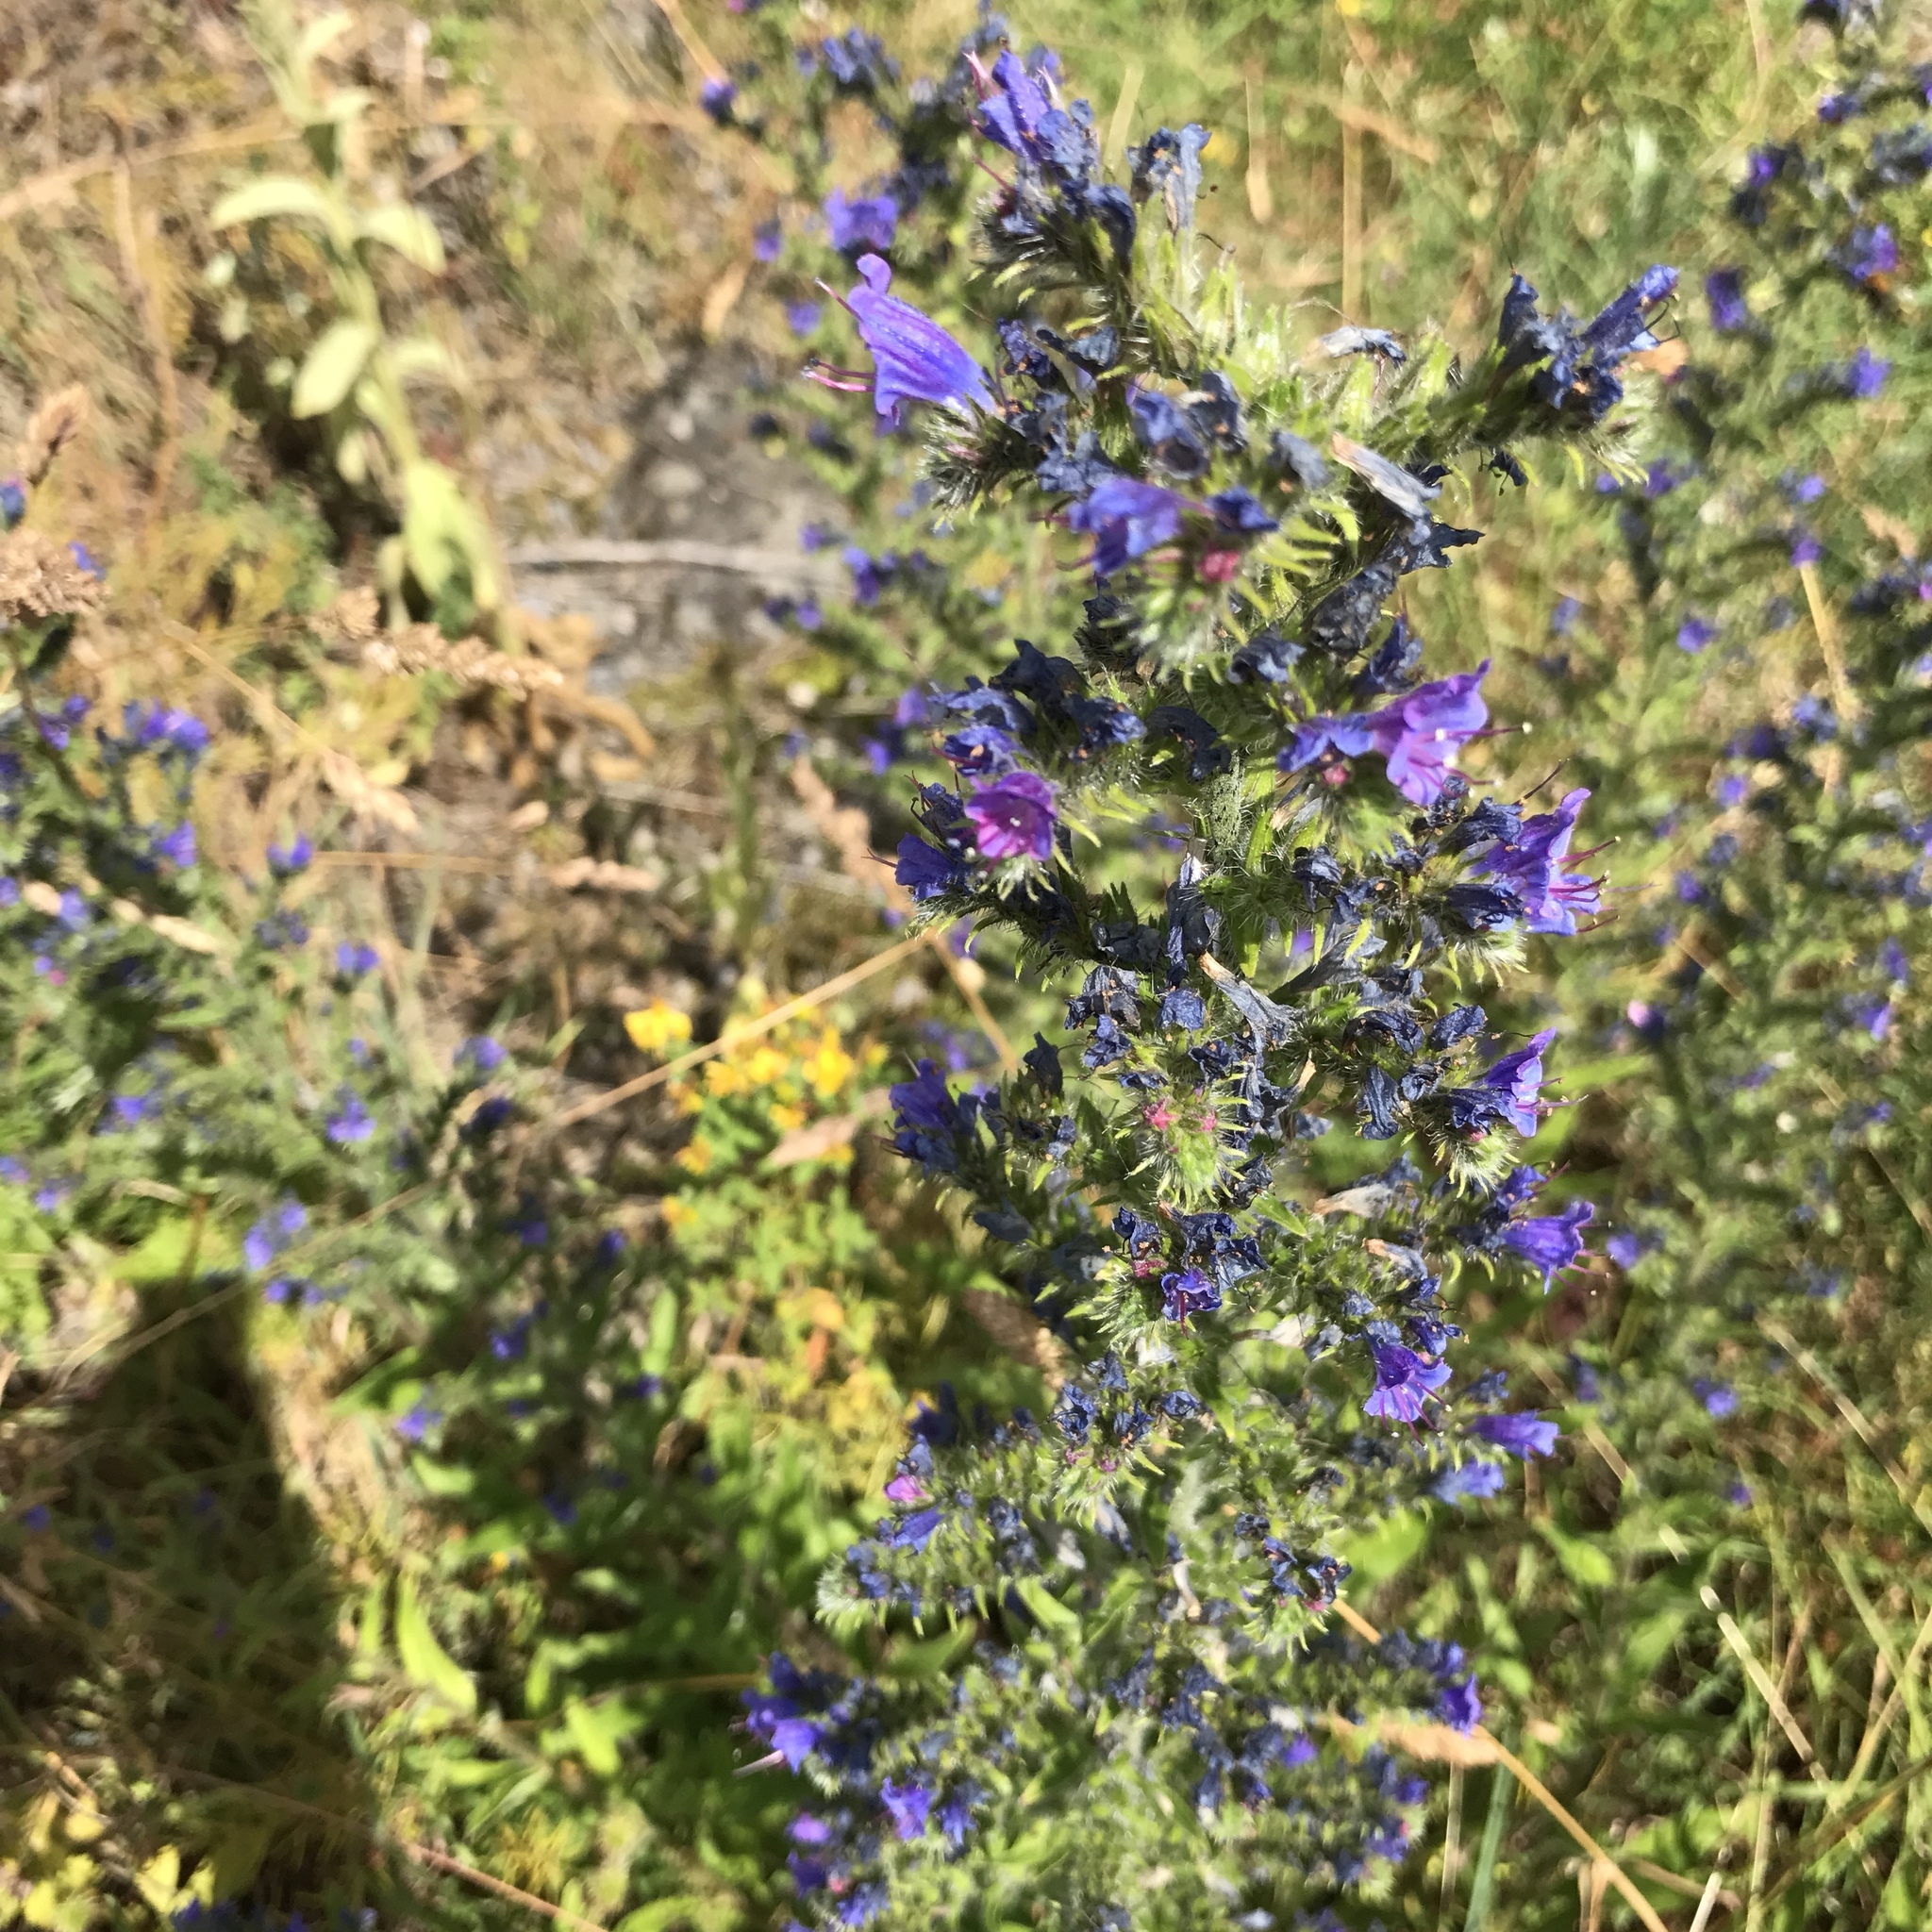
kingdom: Plantae
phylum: Tracheophyta
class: Magnoliopsida
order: Boraginales
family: Boraginaceae
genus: Echium
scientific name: Echium vulgare
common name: Common viper's bugloss
